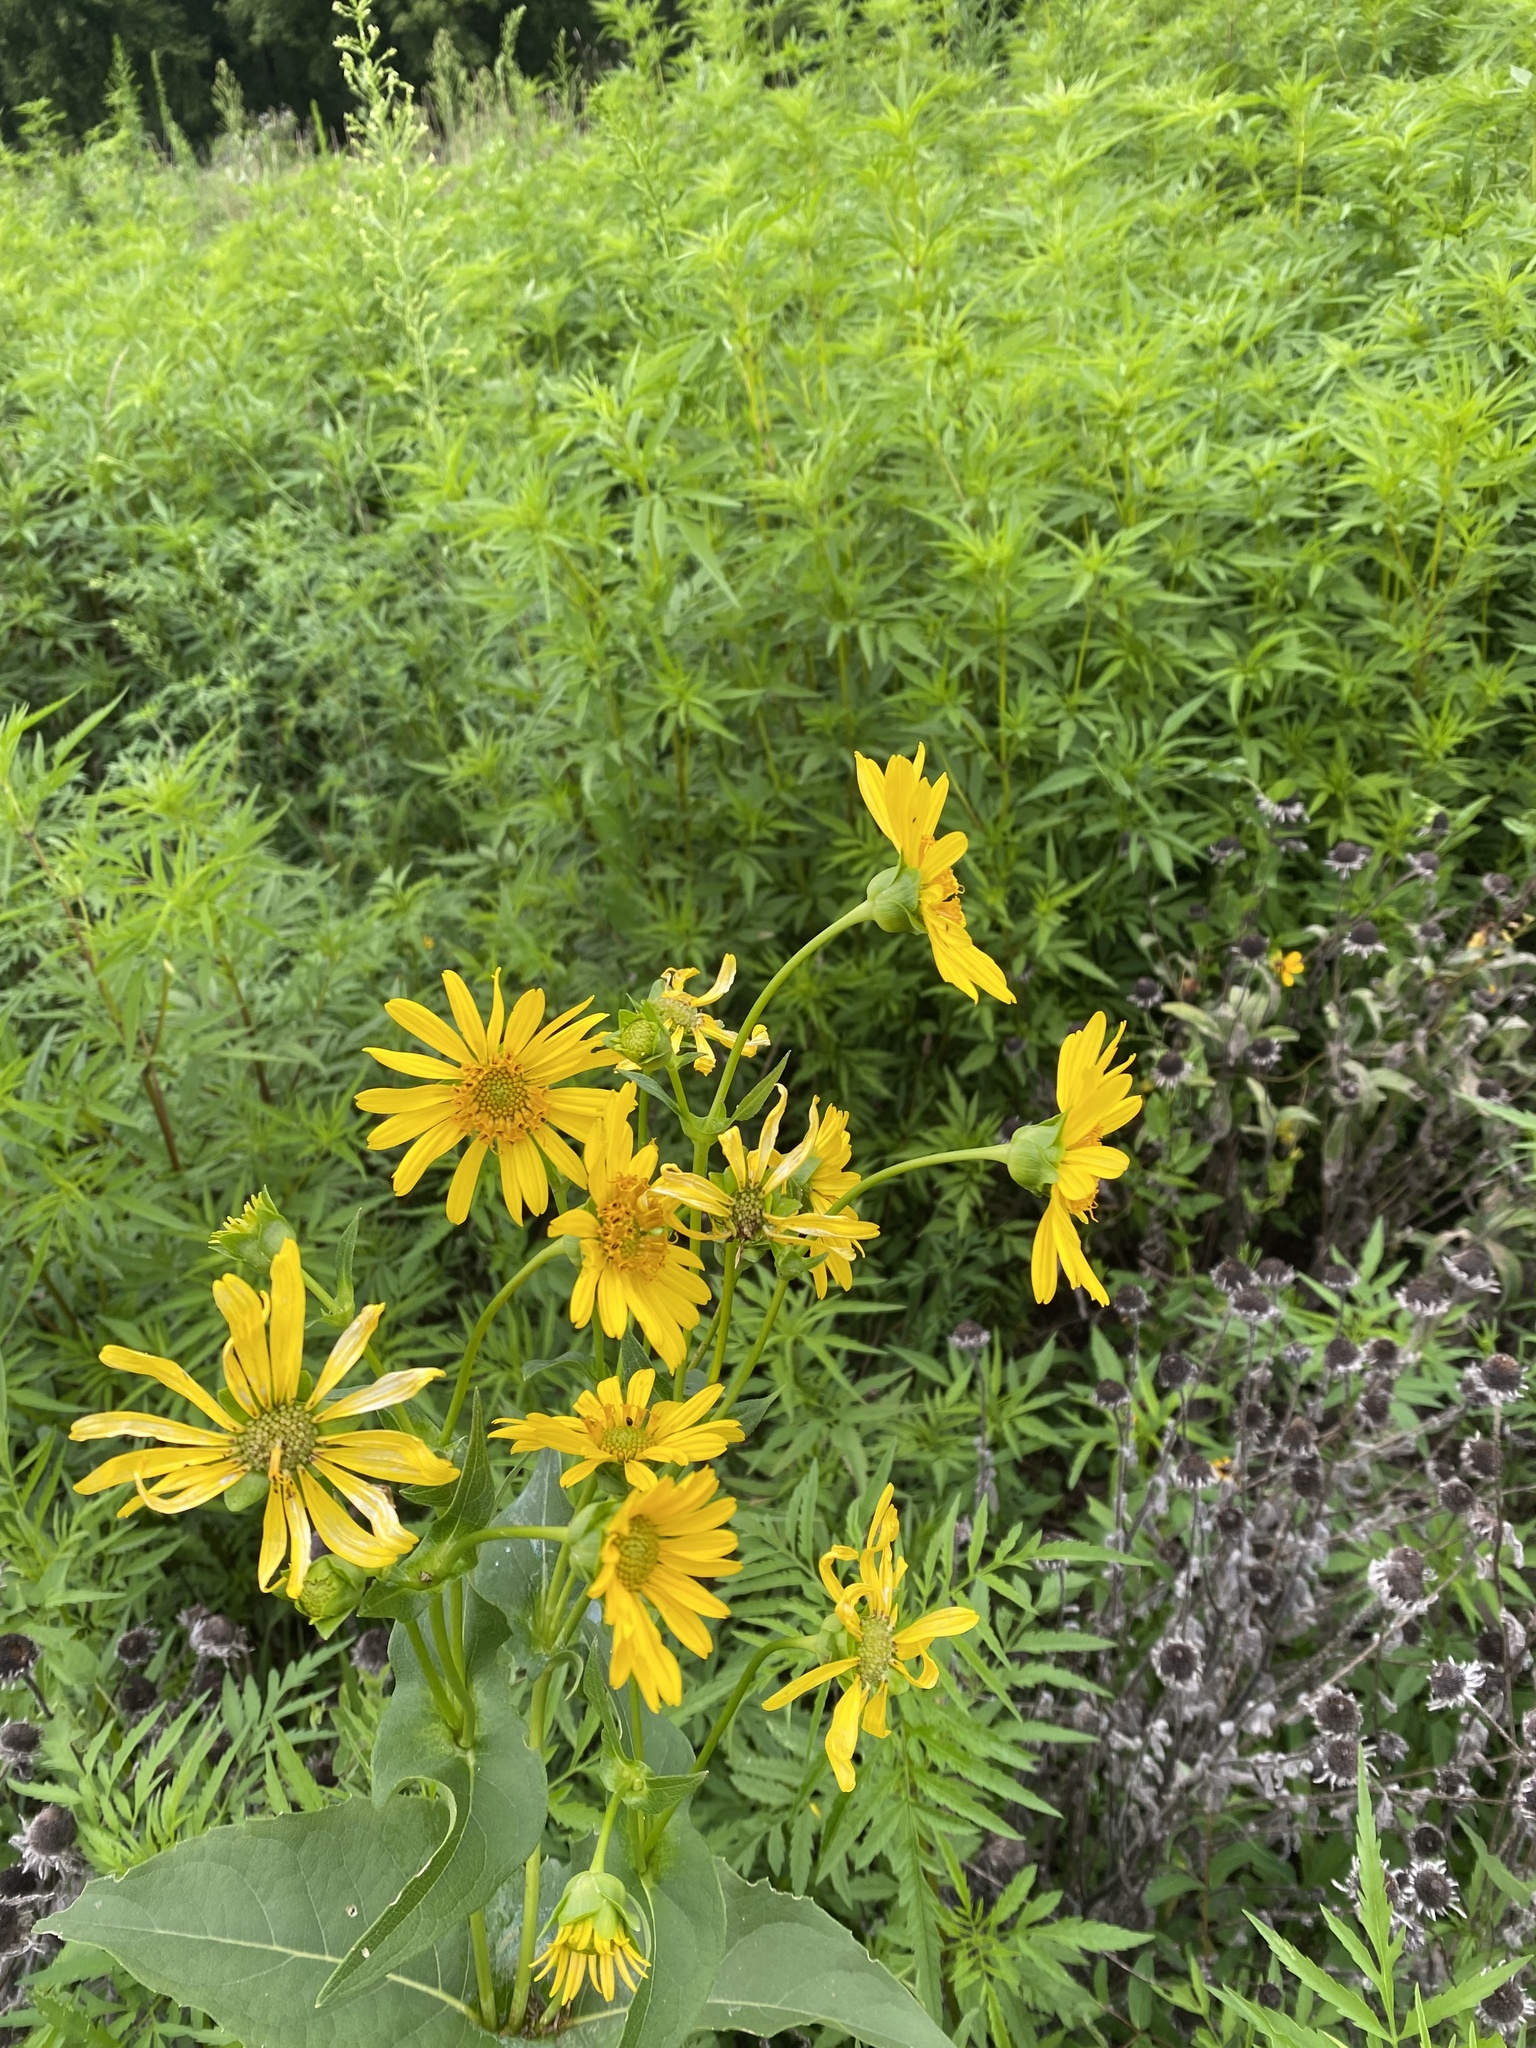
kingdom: Plantae
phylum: Tracheophyta
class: Magnoliopsida
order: Asterales
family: Asteraceae
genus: Silphium
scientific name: Silphium perfoliatum
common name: Cup-plant
